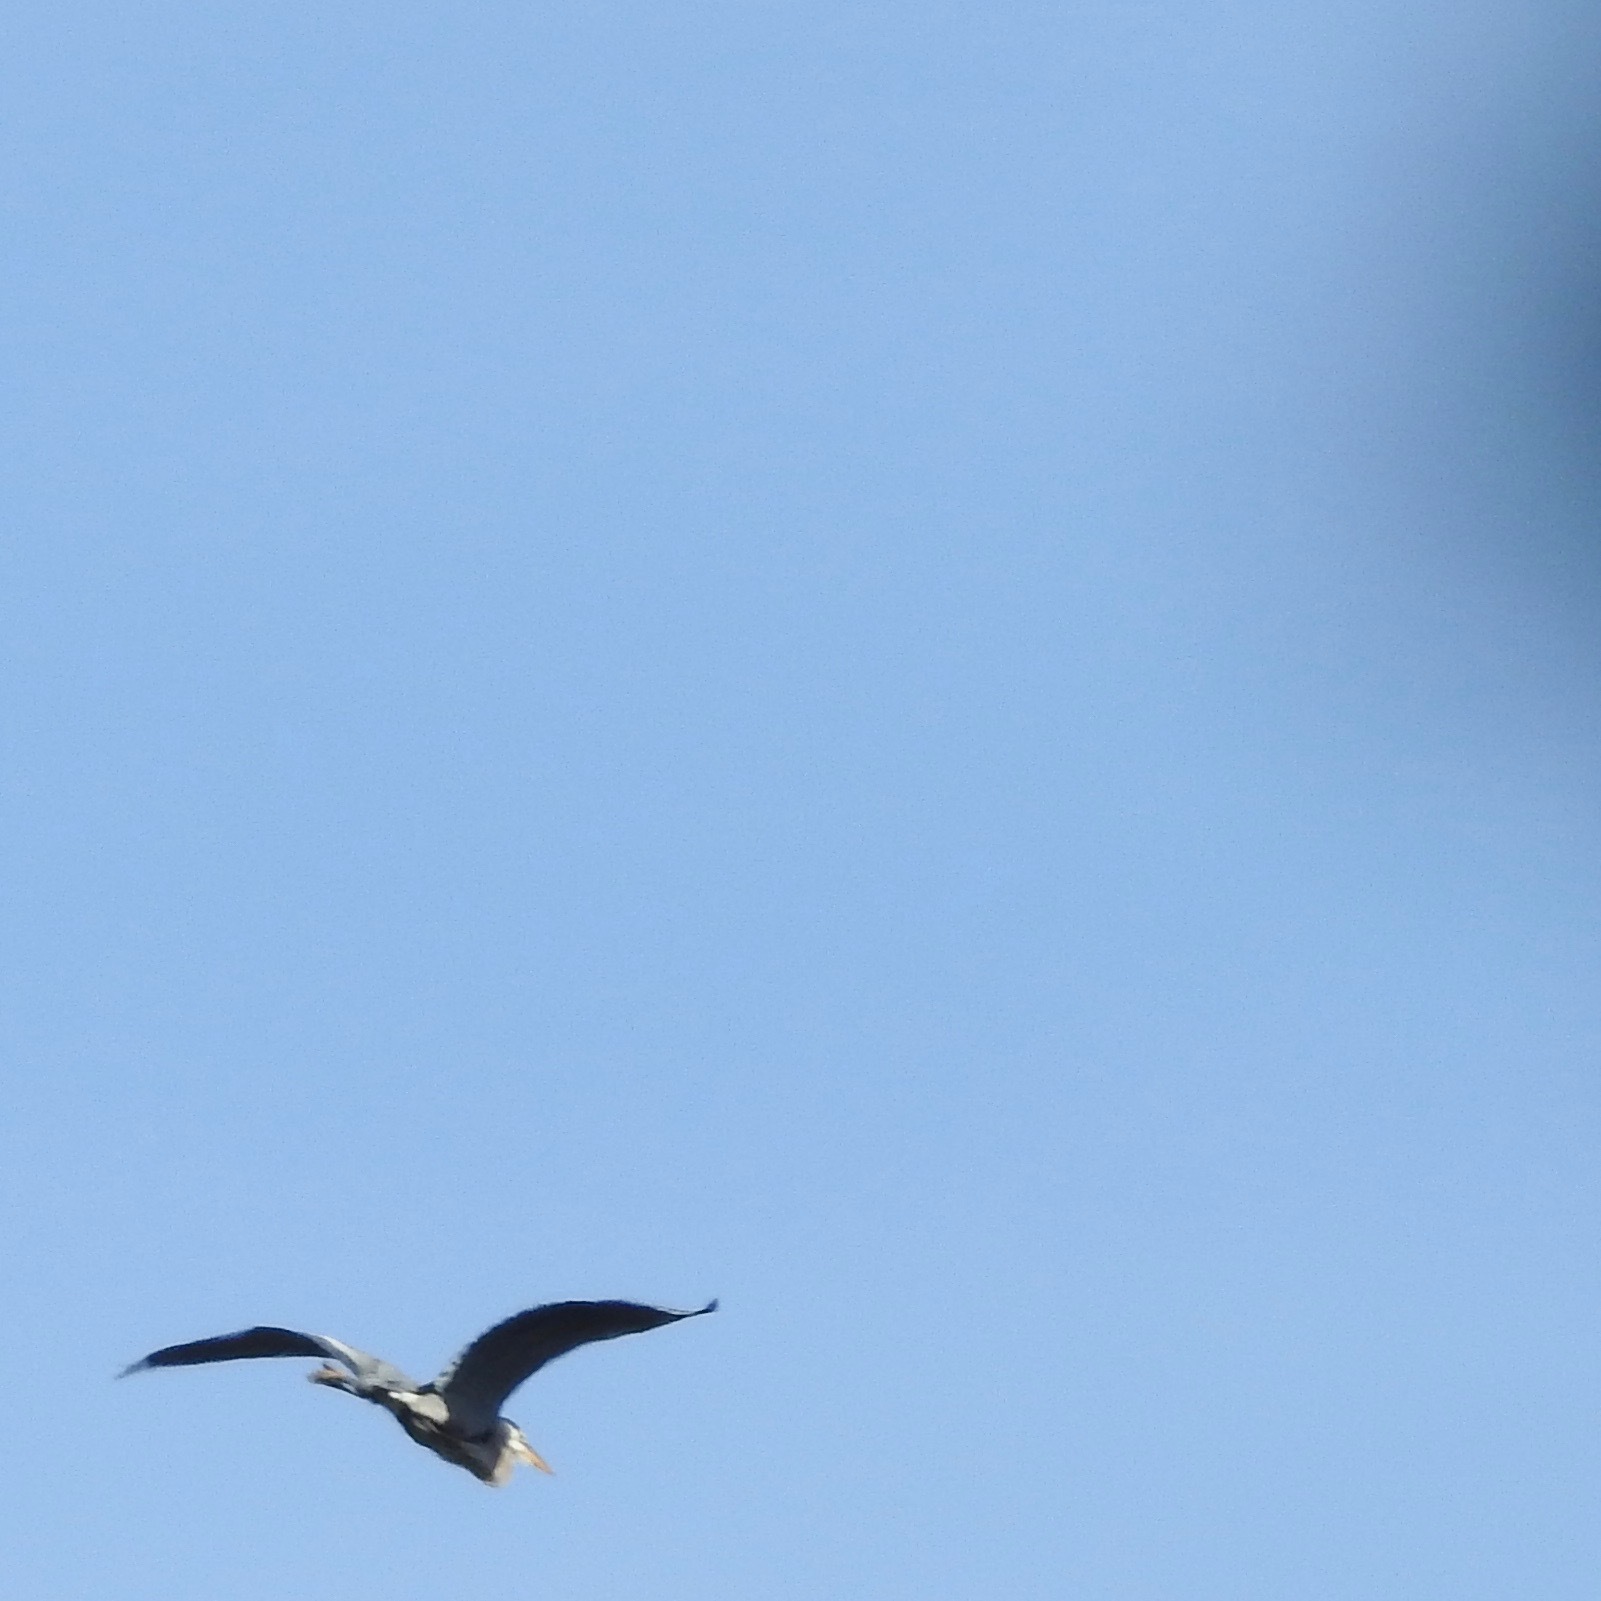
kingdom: Animalia
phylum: Chordata
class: Aves
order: Pelecaniformes
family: Ardeidae
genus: Ardea
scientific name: Ardea herodias
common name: Great blue heron
